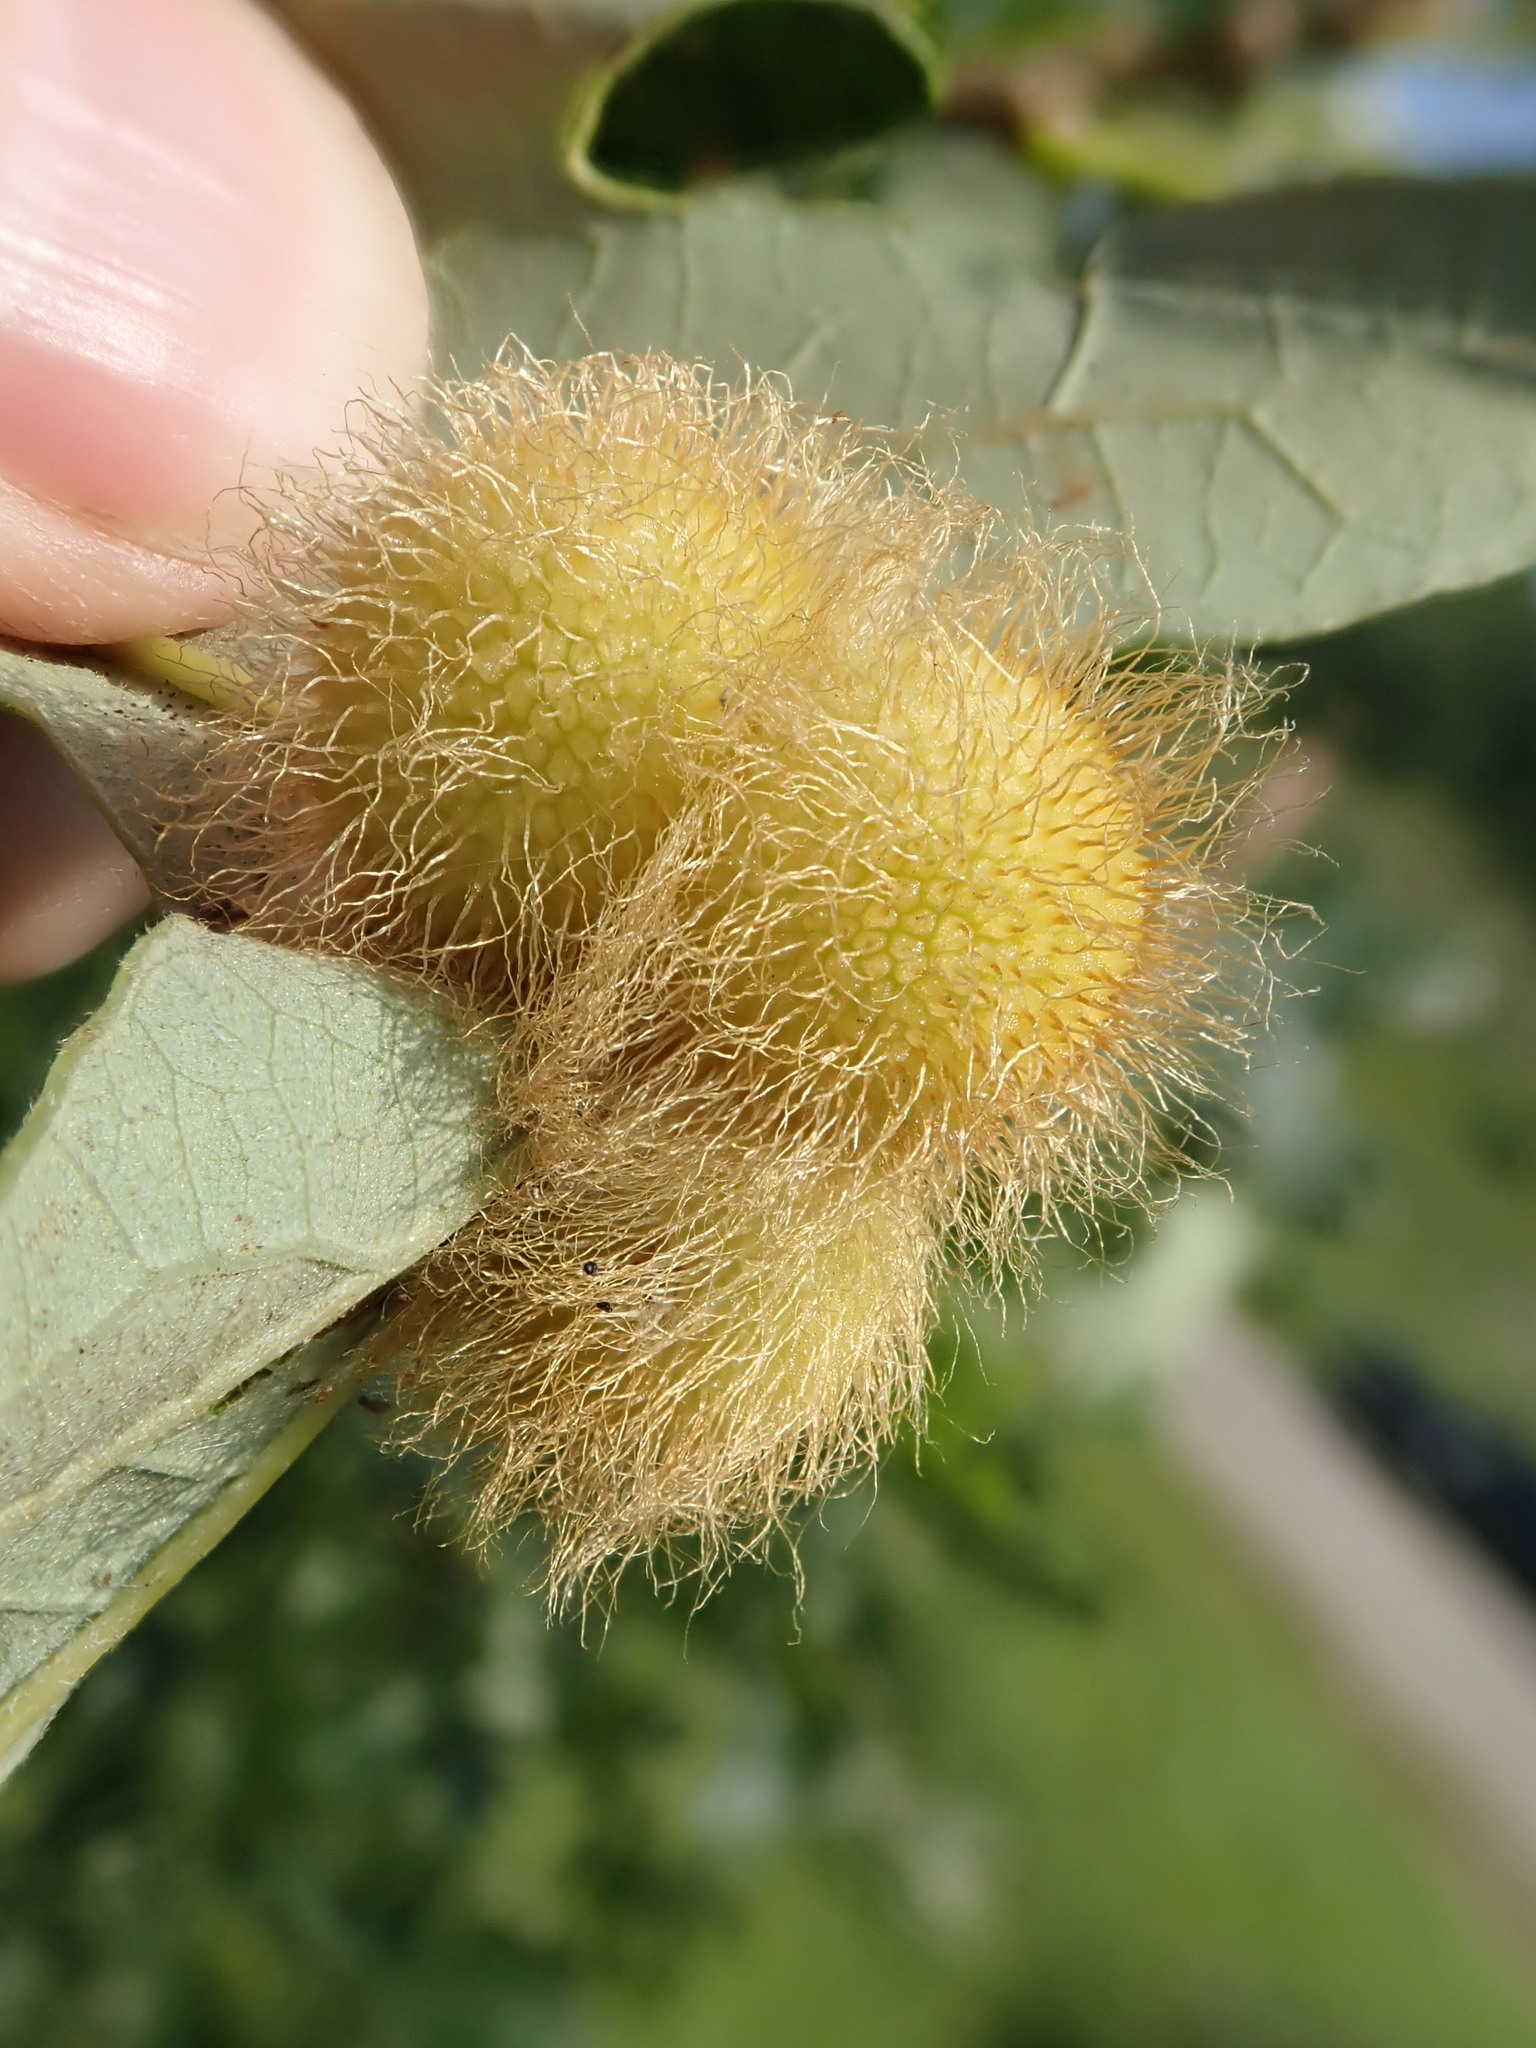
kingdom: Animalia
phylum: Arthropoda
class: Insecta
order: Hymenoptera
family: Cynipidae
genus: Acraspis
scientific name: Acraspis villosa
